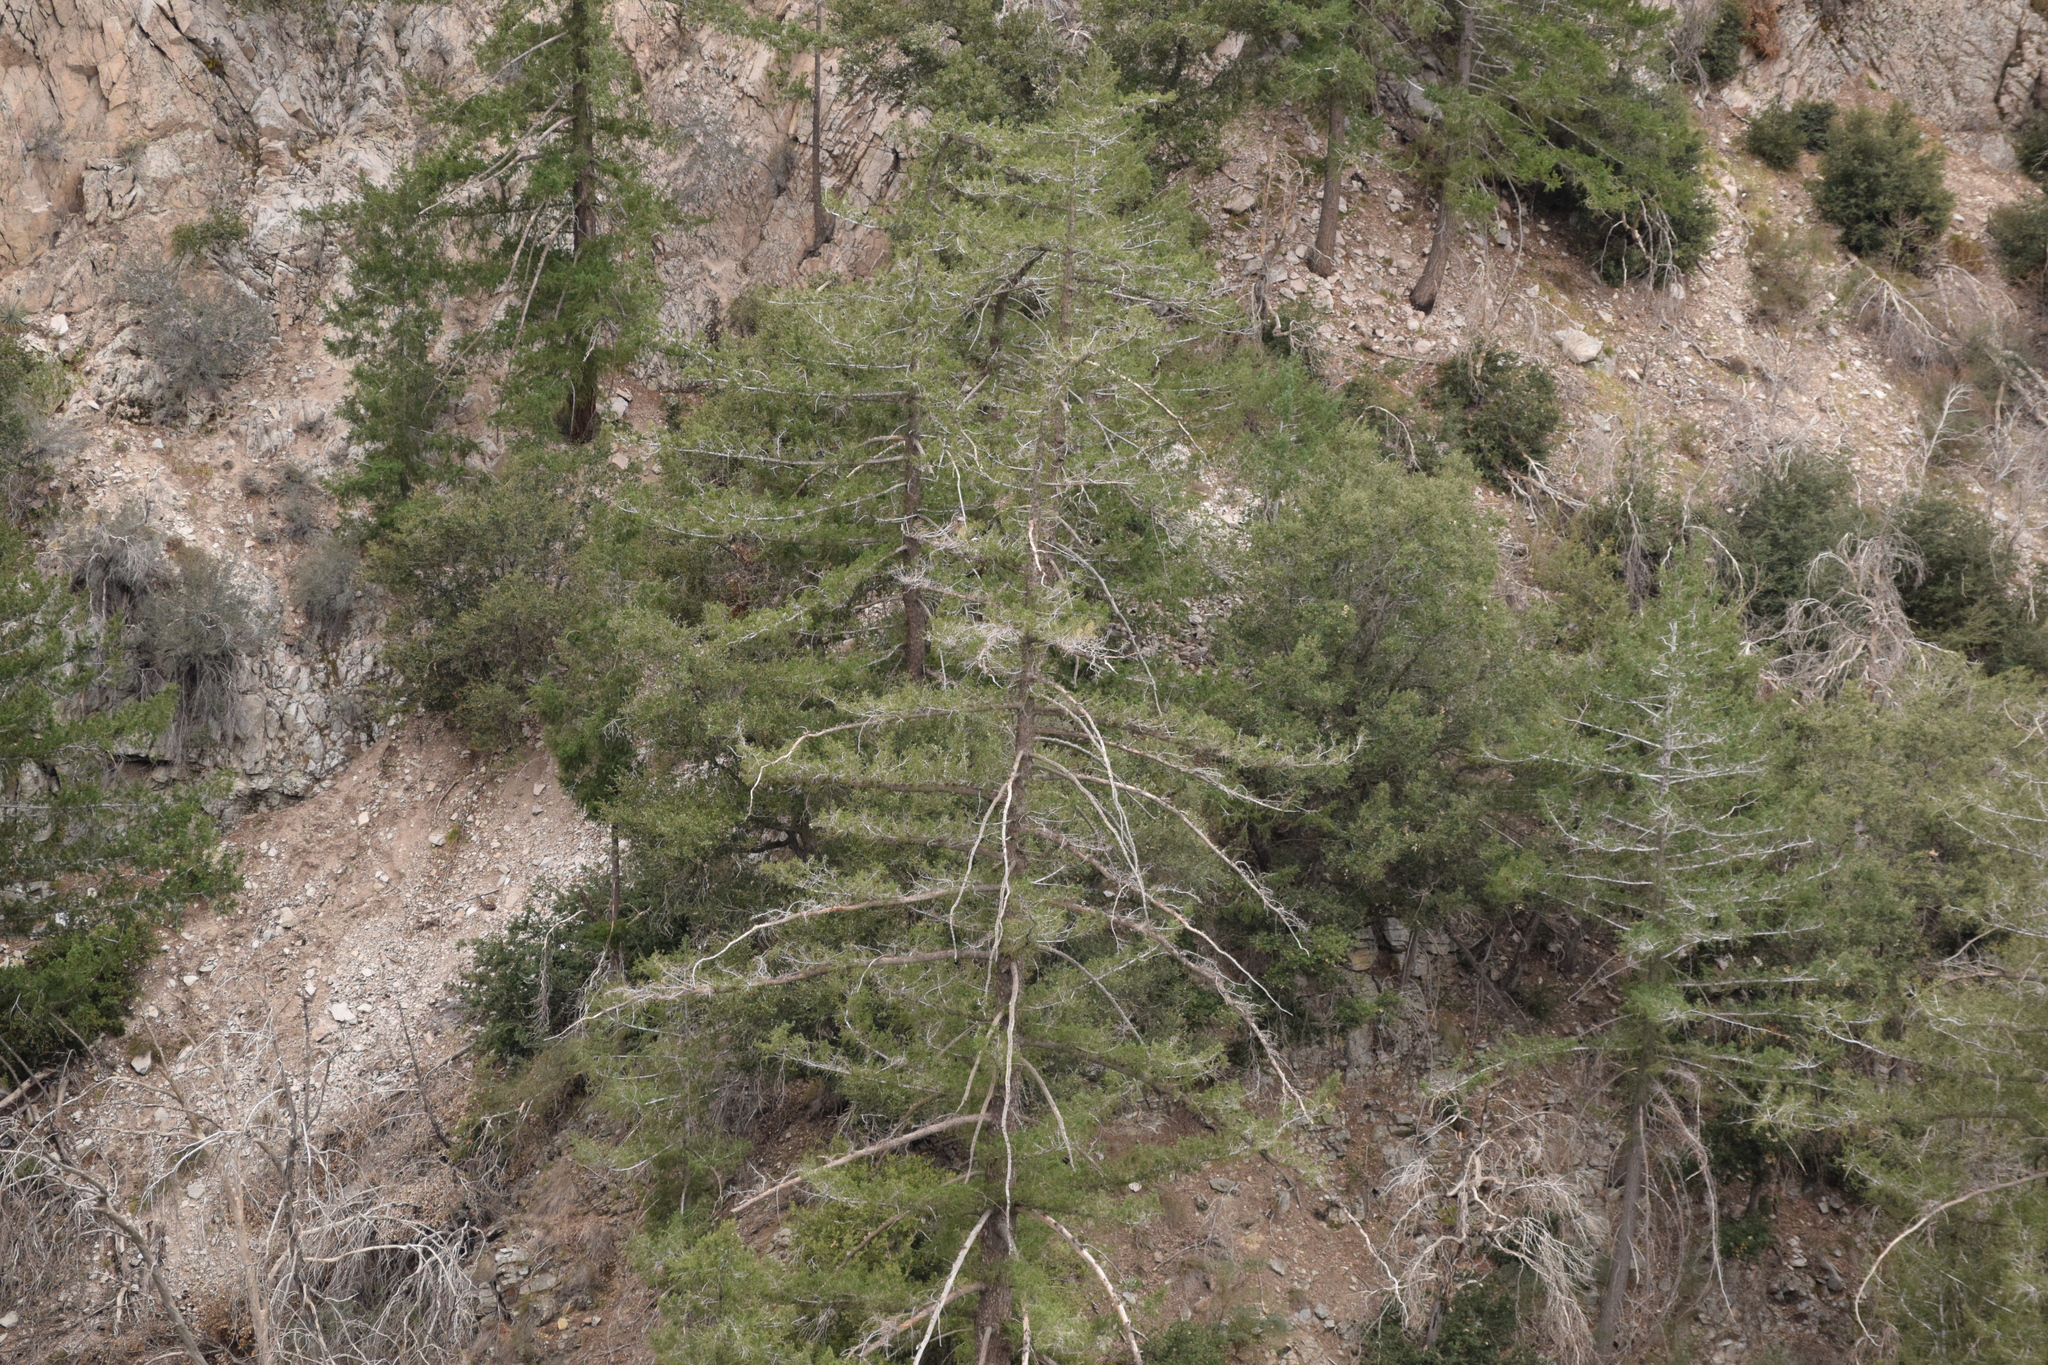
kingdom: Plantae
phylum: Tracheophyta
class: Pinopsida
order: Pinales
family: Pinaceae
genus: Pseudotsuga
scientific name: Pseudotsuga macrocarpa
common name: Big-cone douglas-fir
